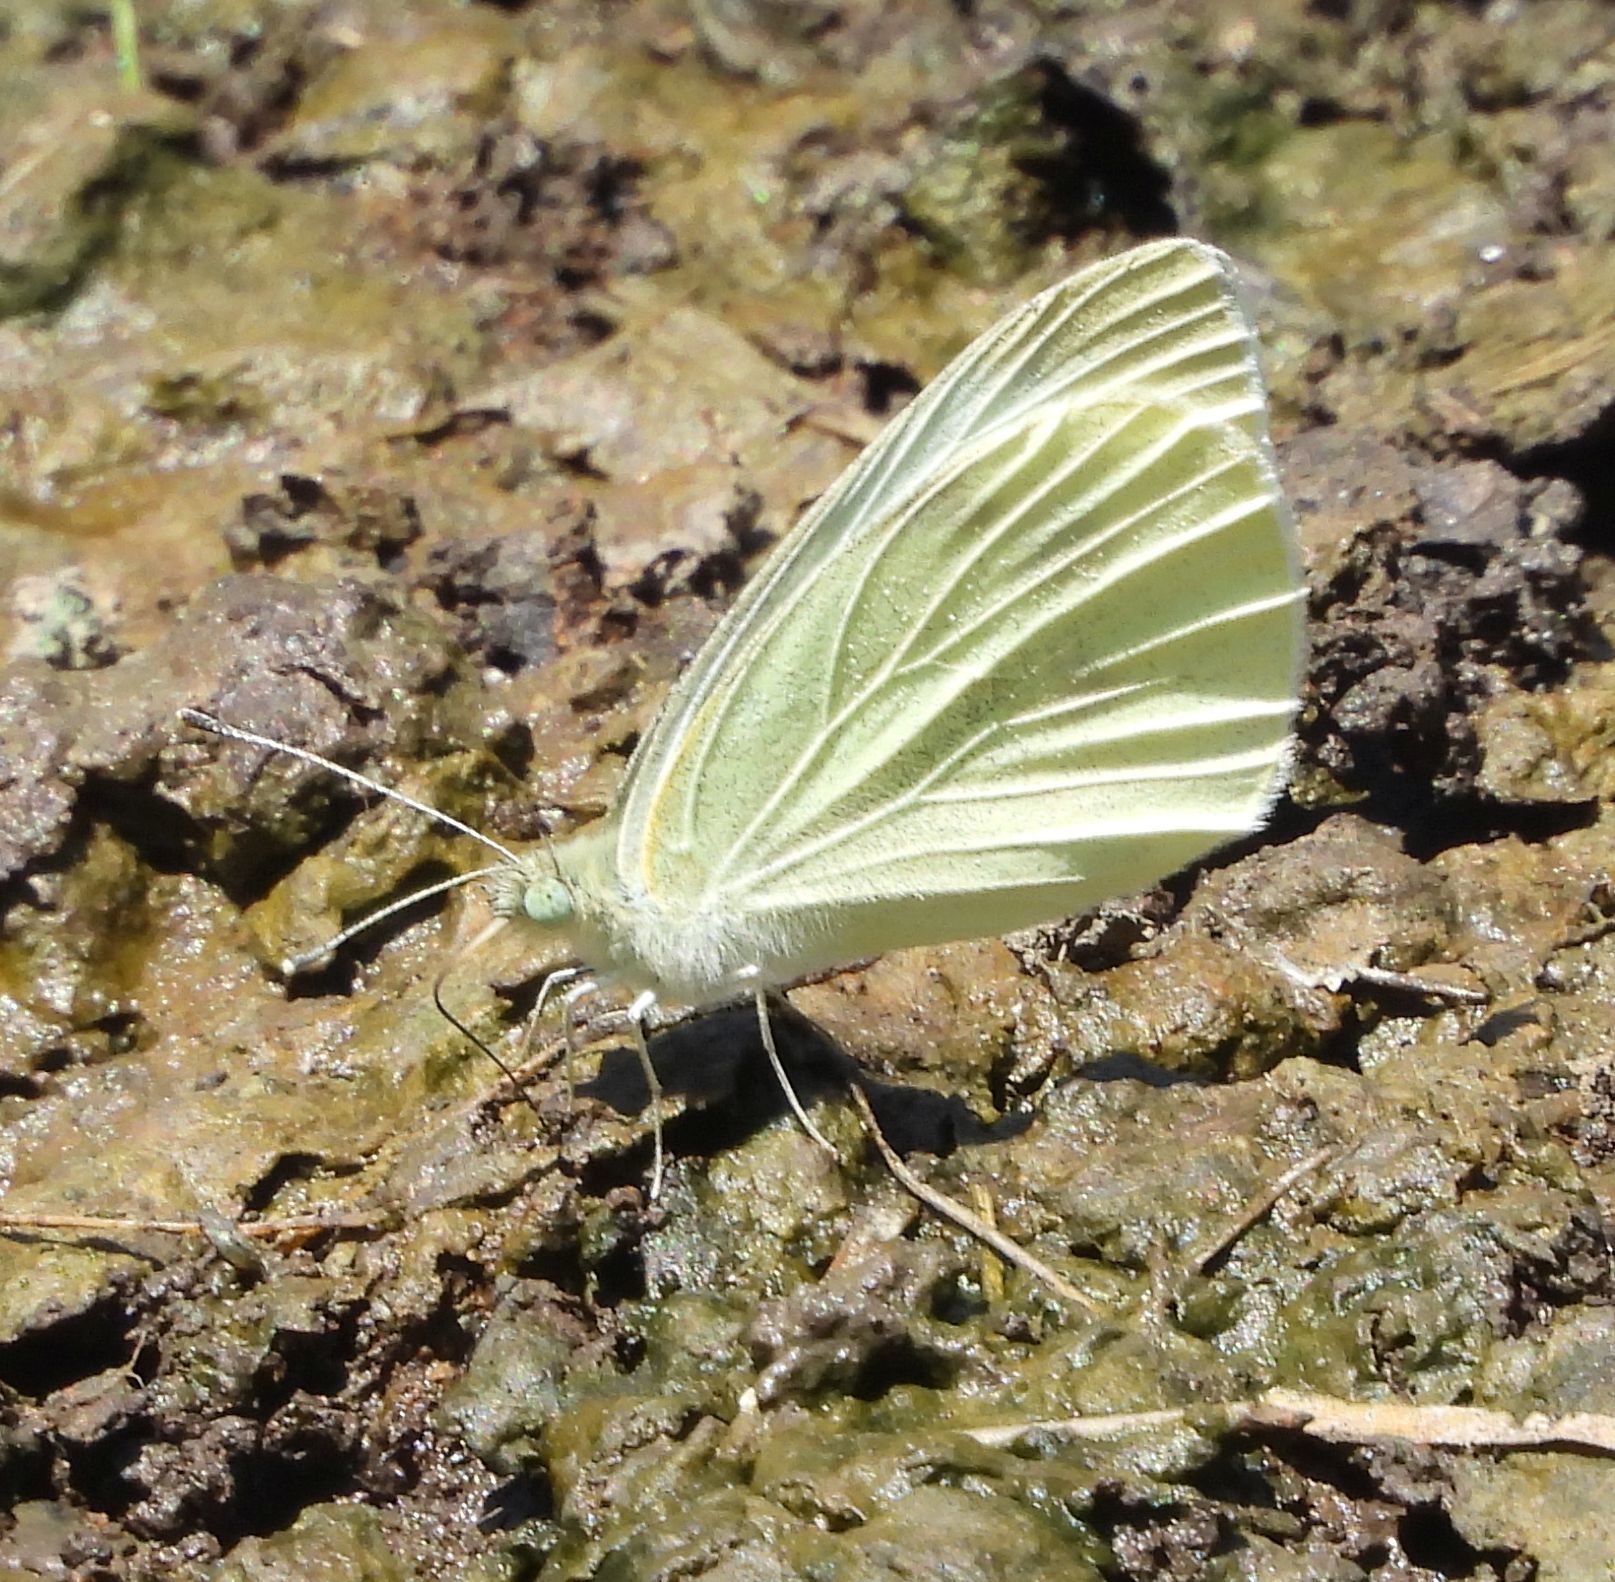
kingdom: Animalia
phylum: Arthropoda
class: Insecta
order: Lepidoptera
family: Pieridae
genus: Pieris
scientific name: Pieris rapae
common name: Small white
